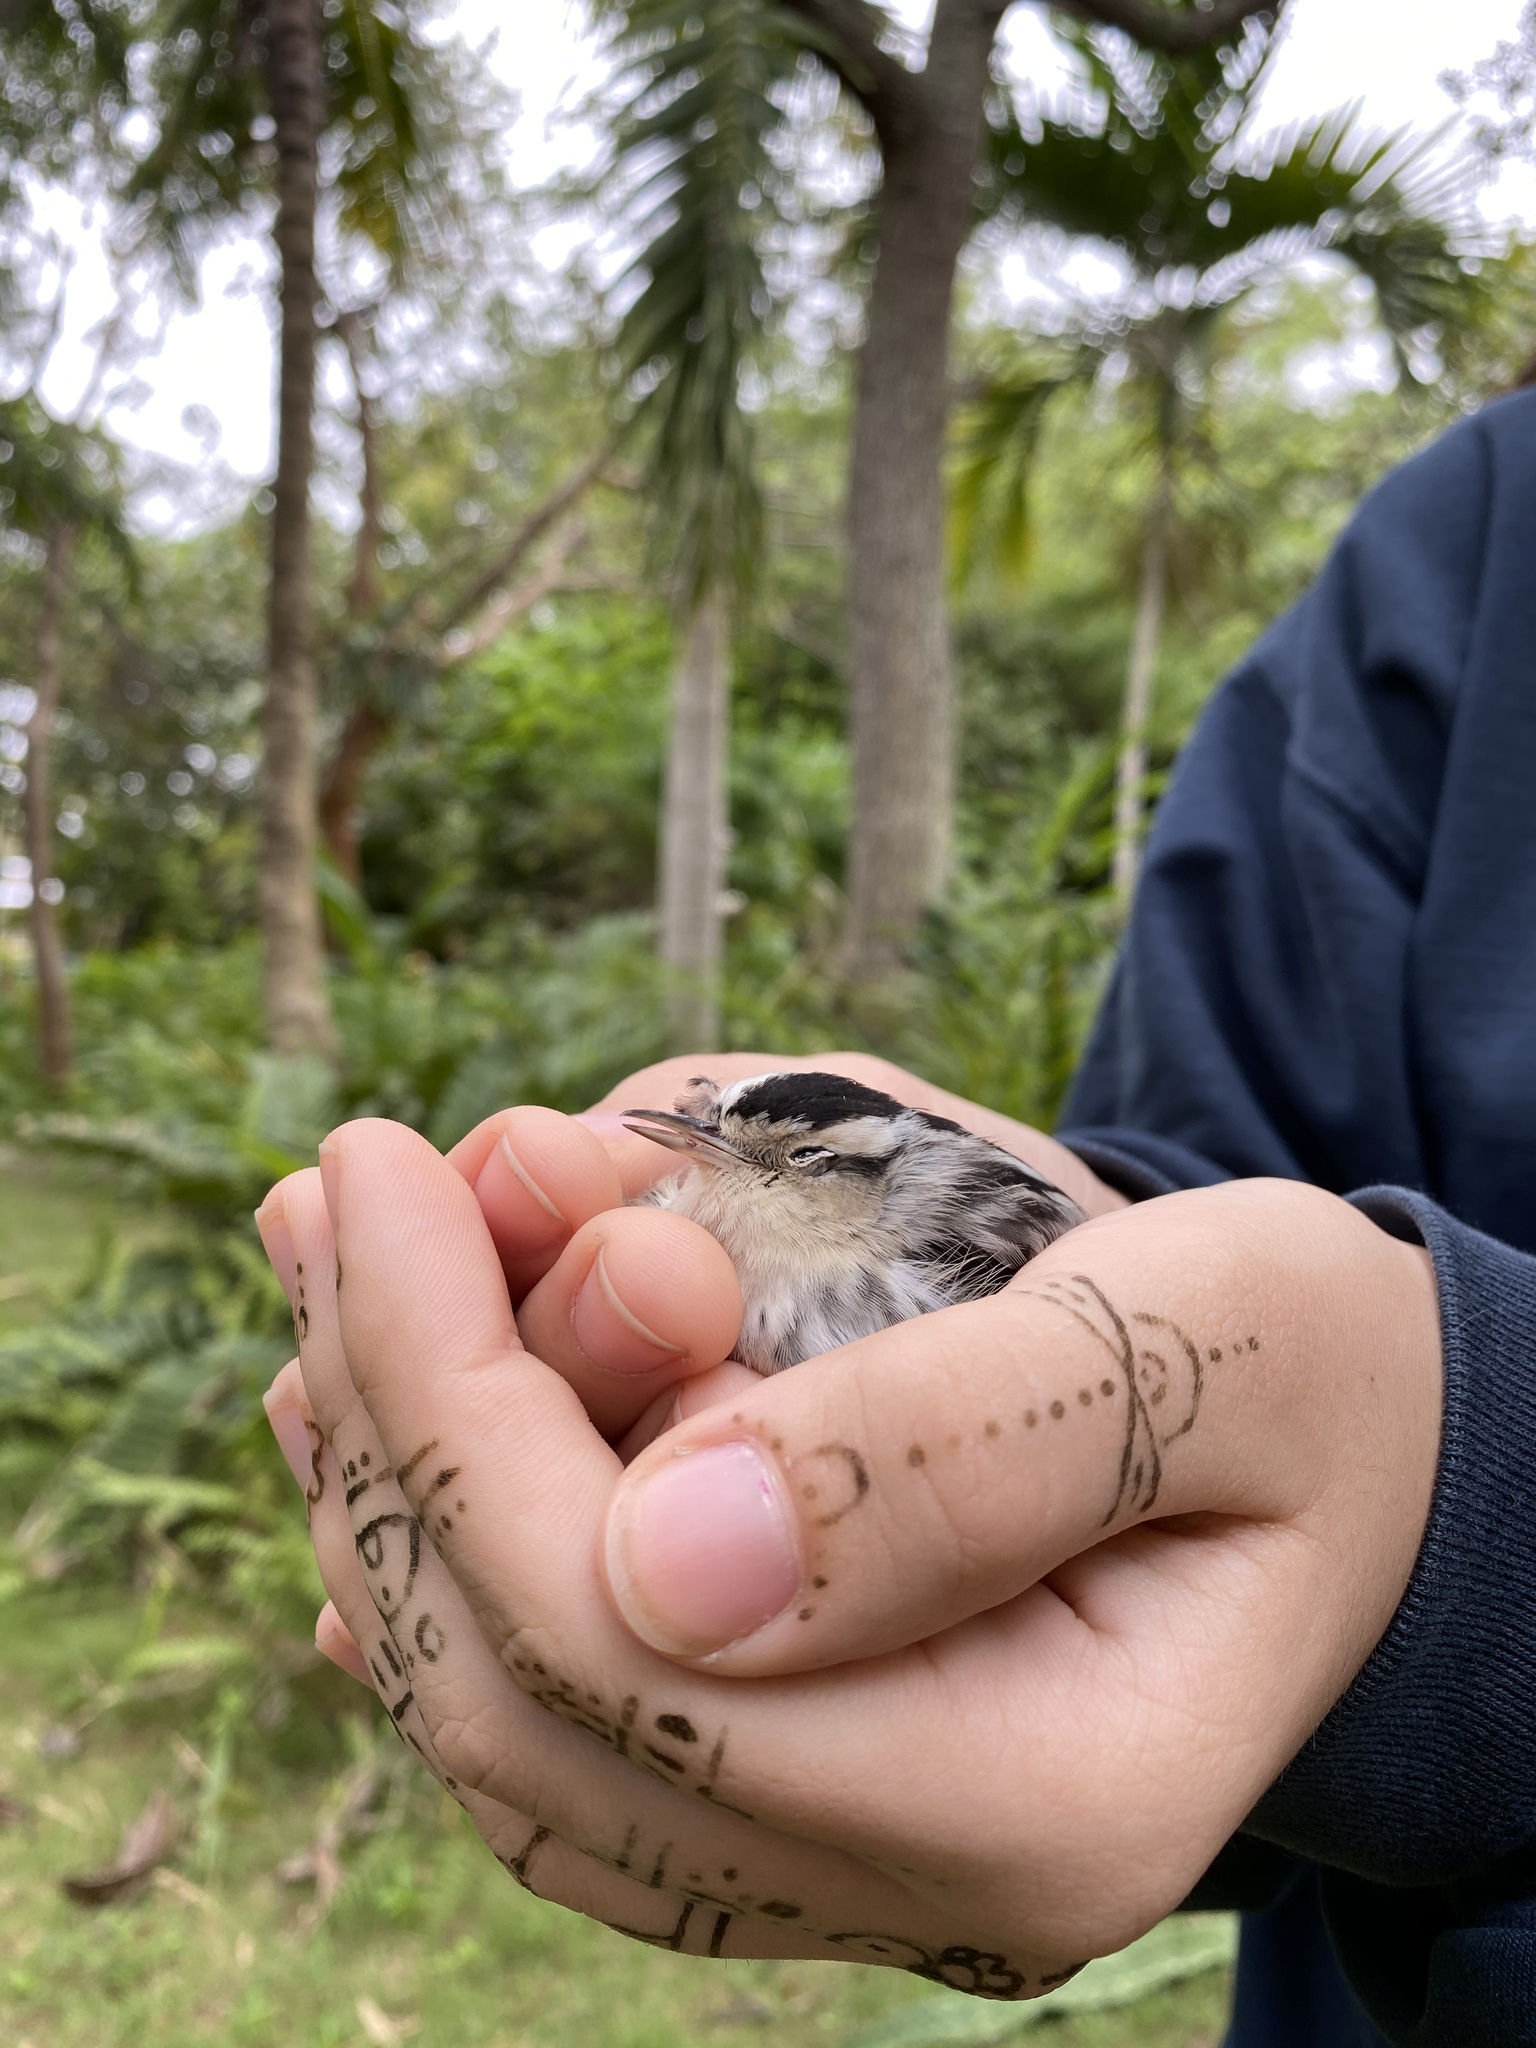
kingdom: Animalia
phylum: Chordata
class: Aves
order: Passeriformes
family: Parulidae
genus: Mniotilta
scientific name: Mniotilta varia
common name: Black-and-white warbler
